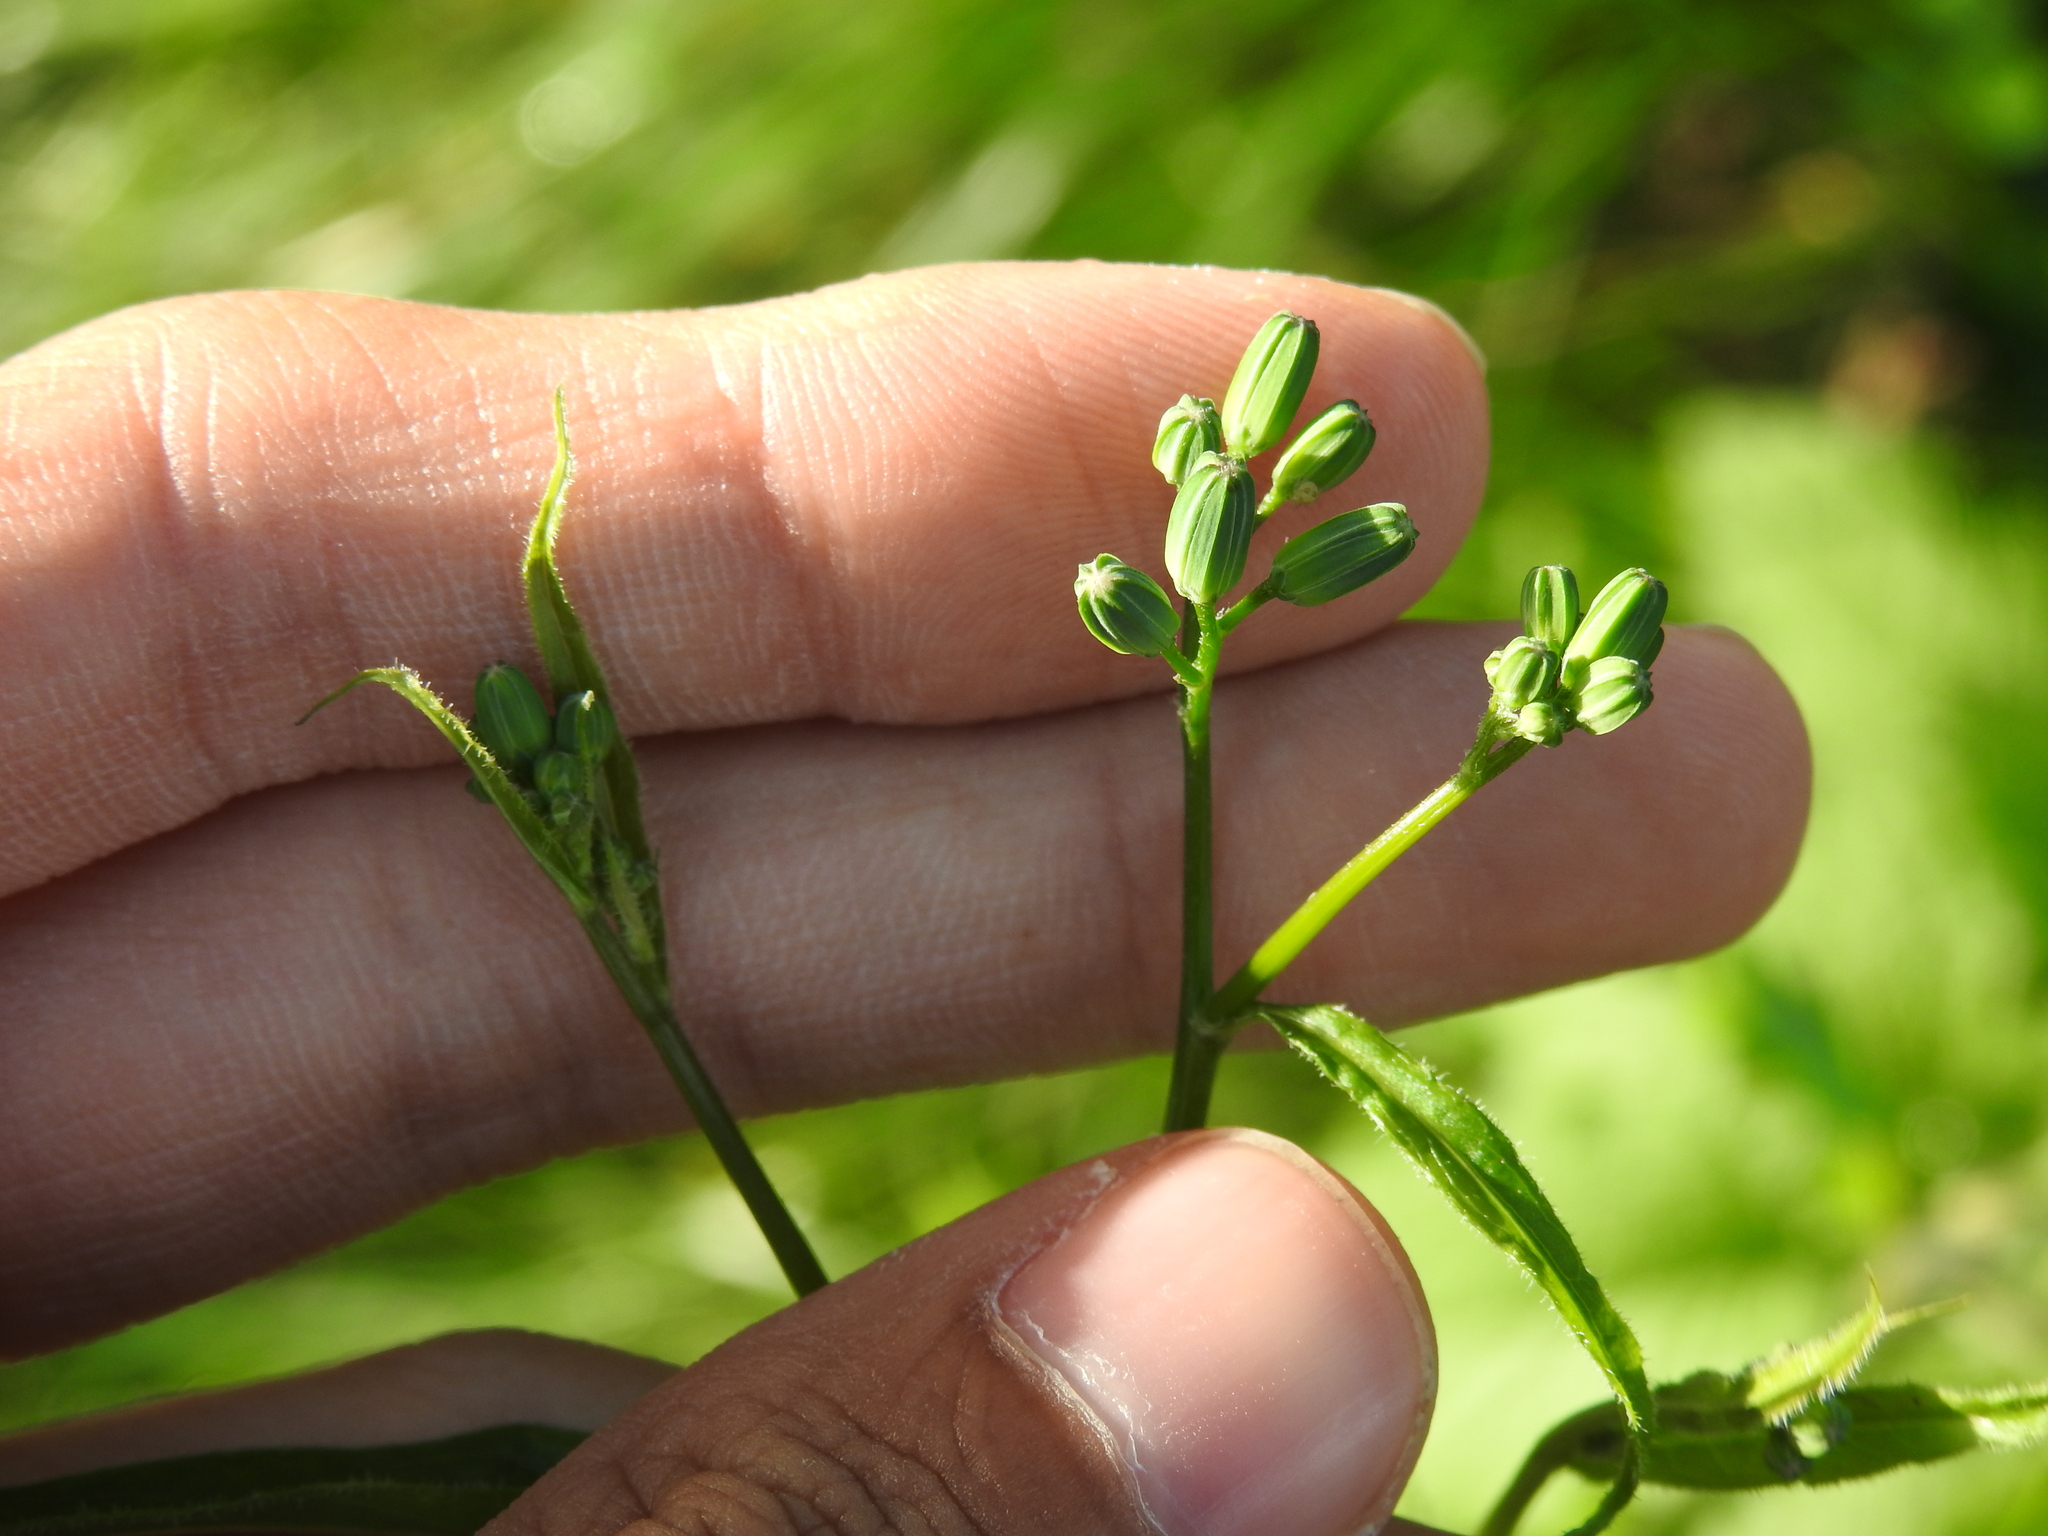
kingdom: Plantae
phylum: Tracheophyta
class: Magnoliopsida
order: Asterales
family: Asteraceae
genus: Lapsana
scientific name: Lapsana communis
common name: Nipplewort
